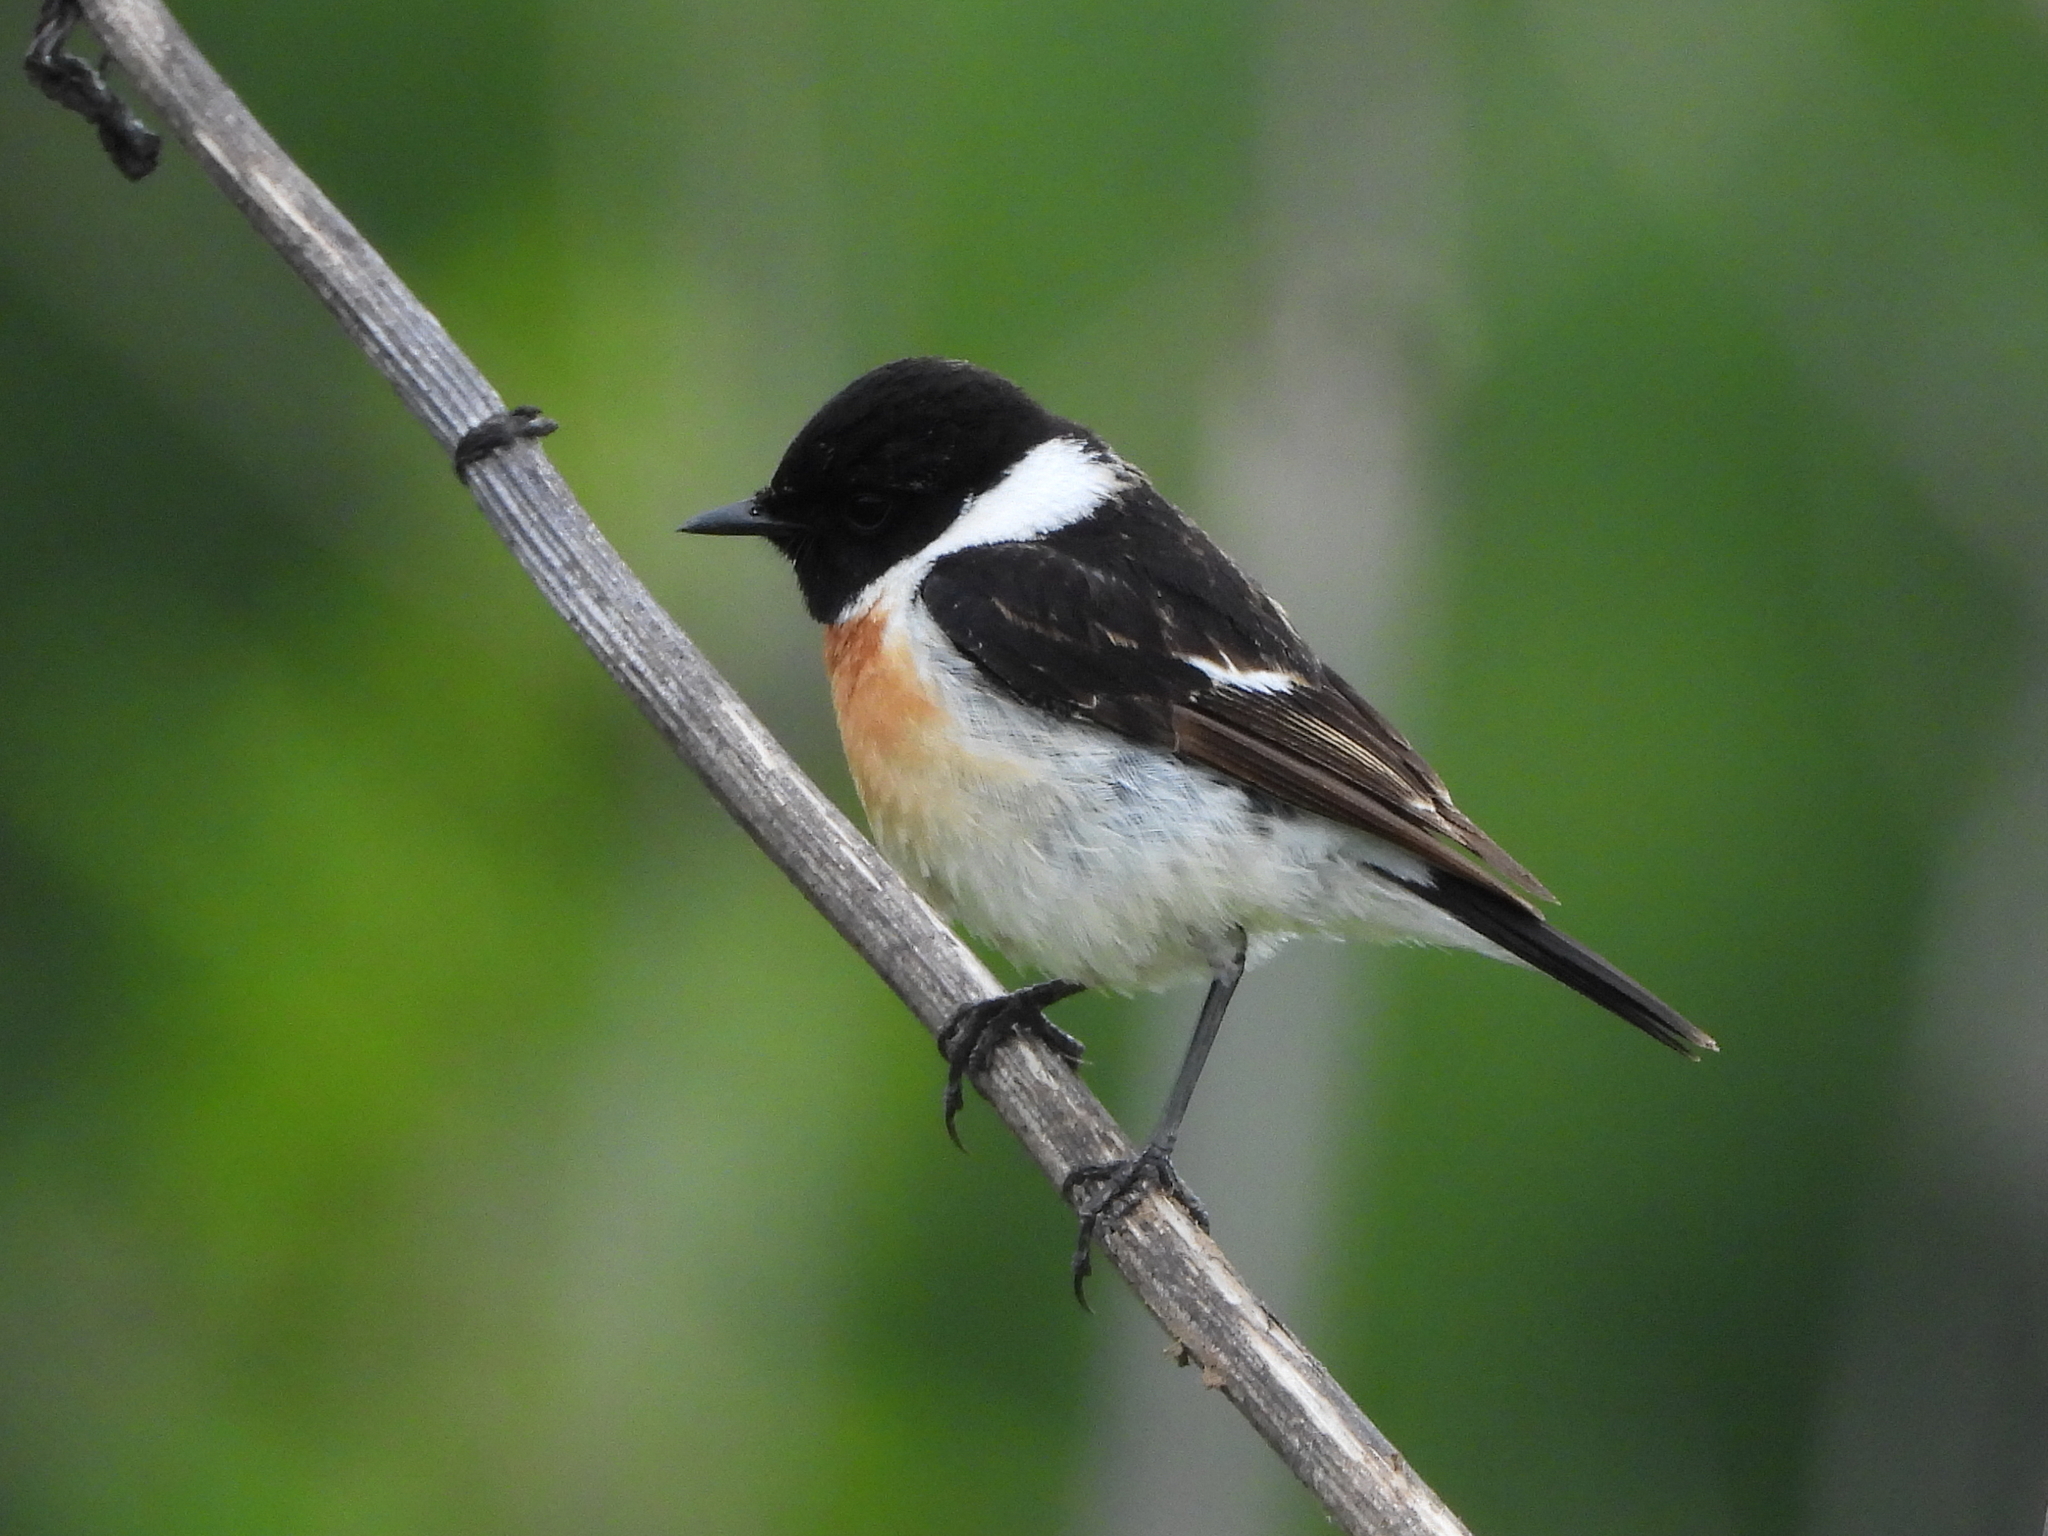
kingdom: Animalia
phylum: Chordata
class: Aves
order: Passeriformes
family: Muscicapidae
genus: Saxicola
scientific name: Saxicola maurus
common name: Siberian stonechat
